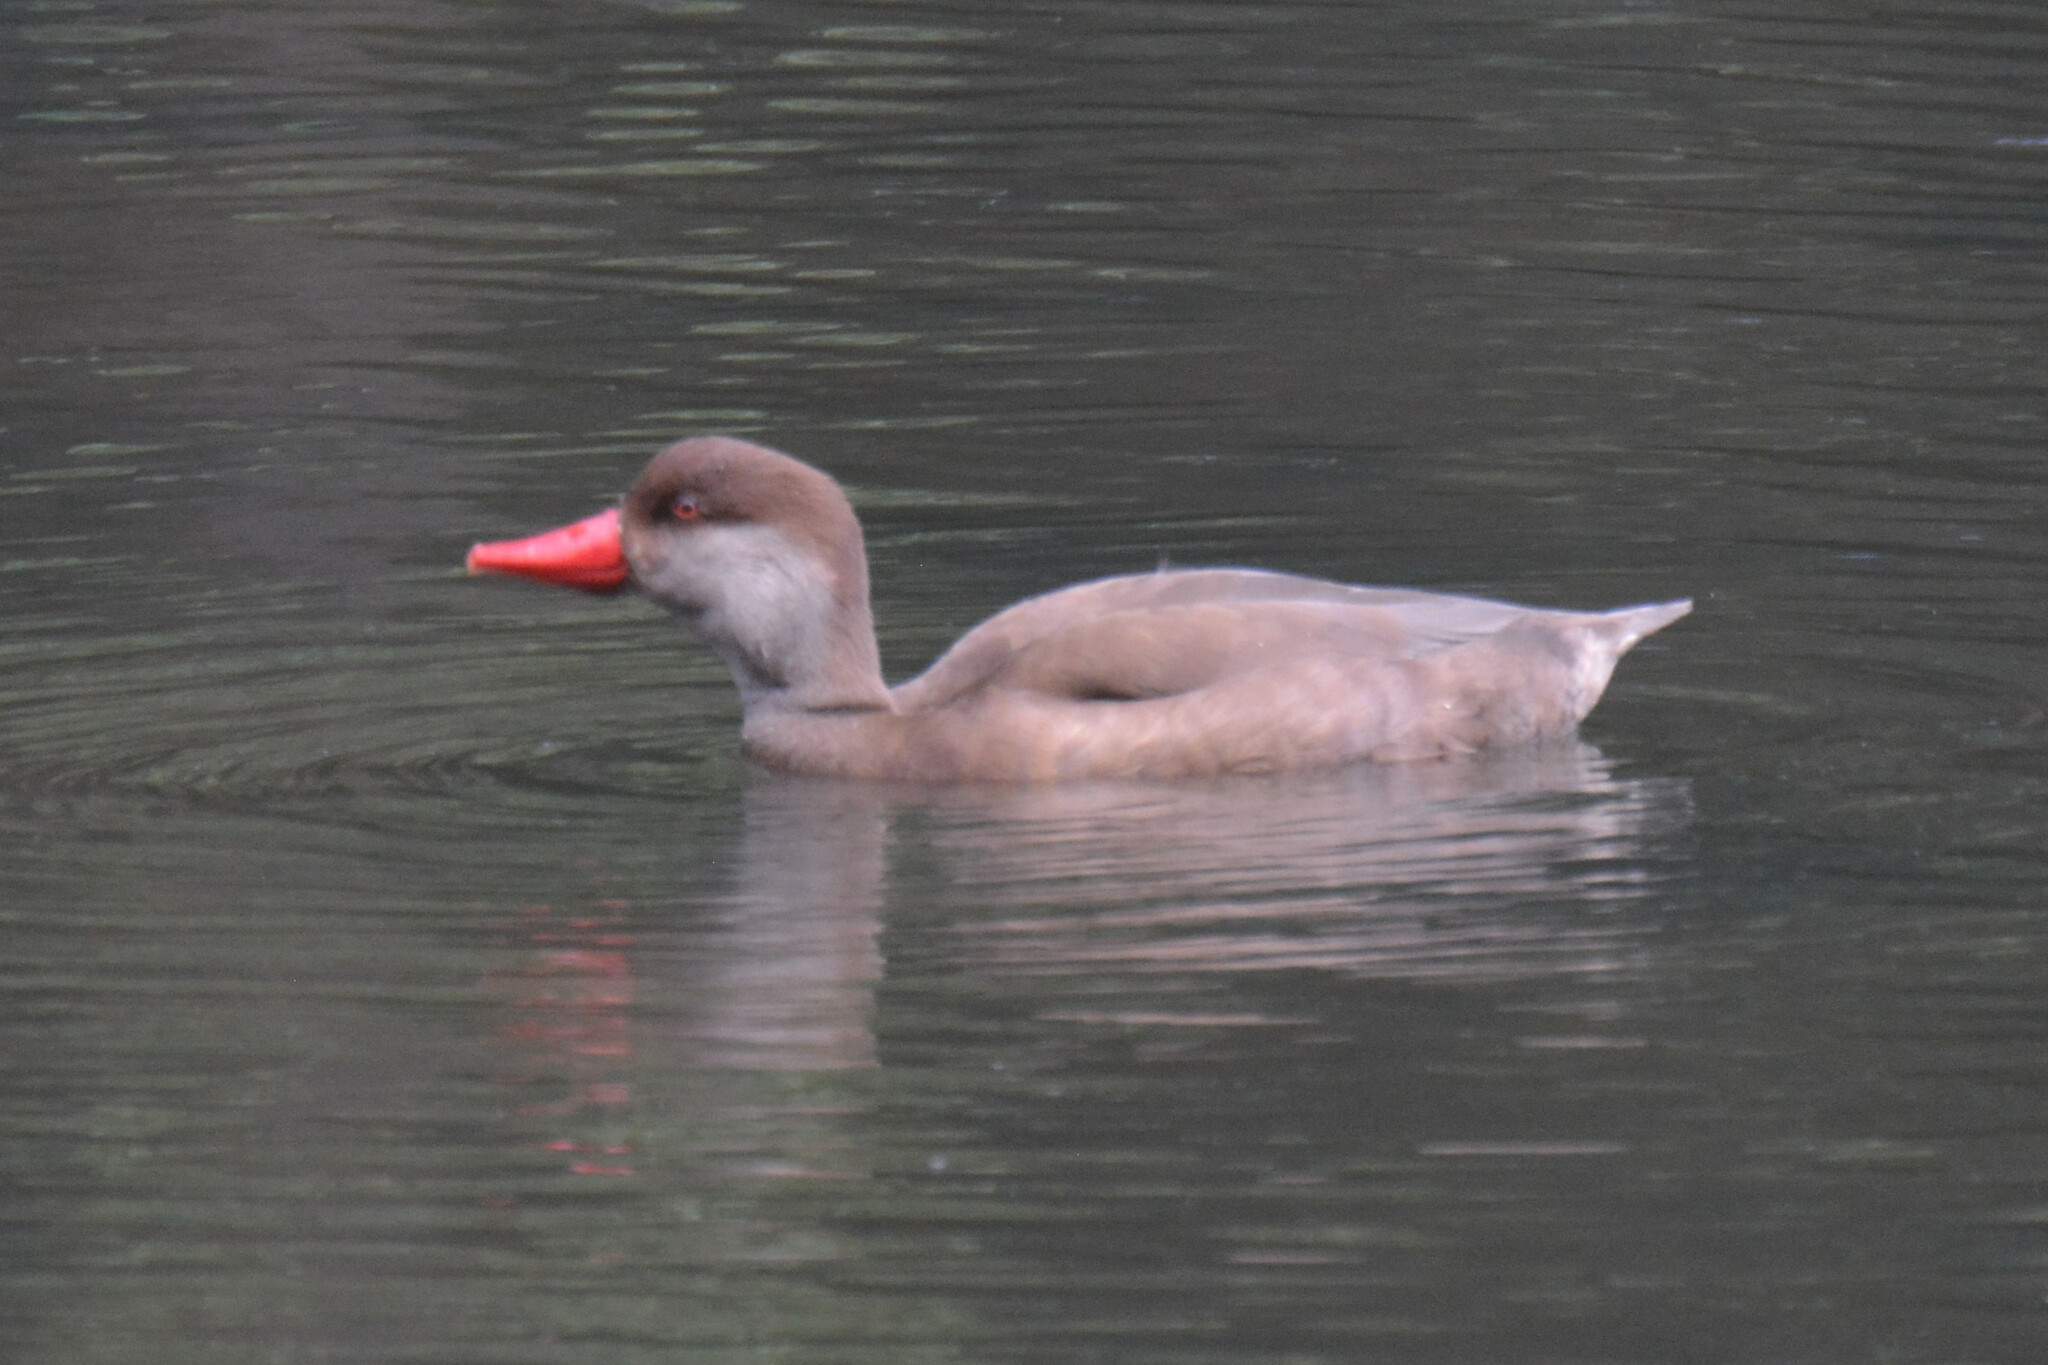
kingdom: Animalia
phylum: Chordata
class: Aves
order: Anseriformes
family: Anatidae
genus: Netta
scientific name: Netta rufina
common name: Red-crested pochard
